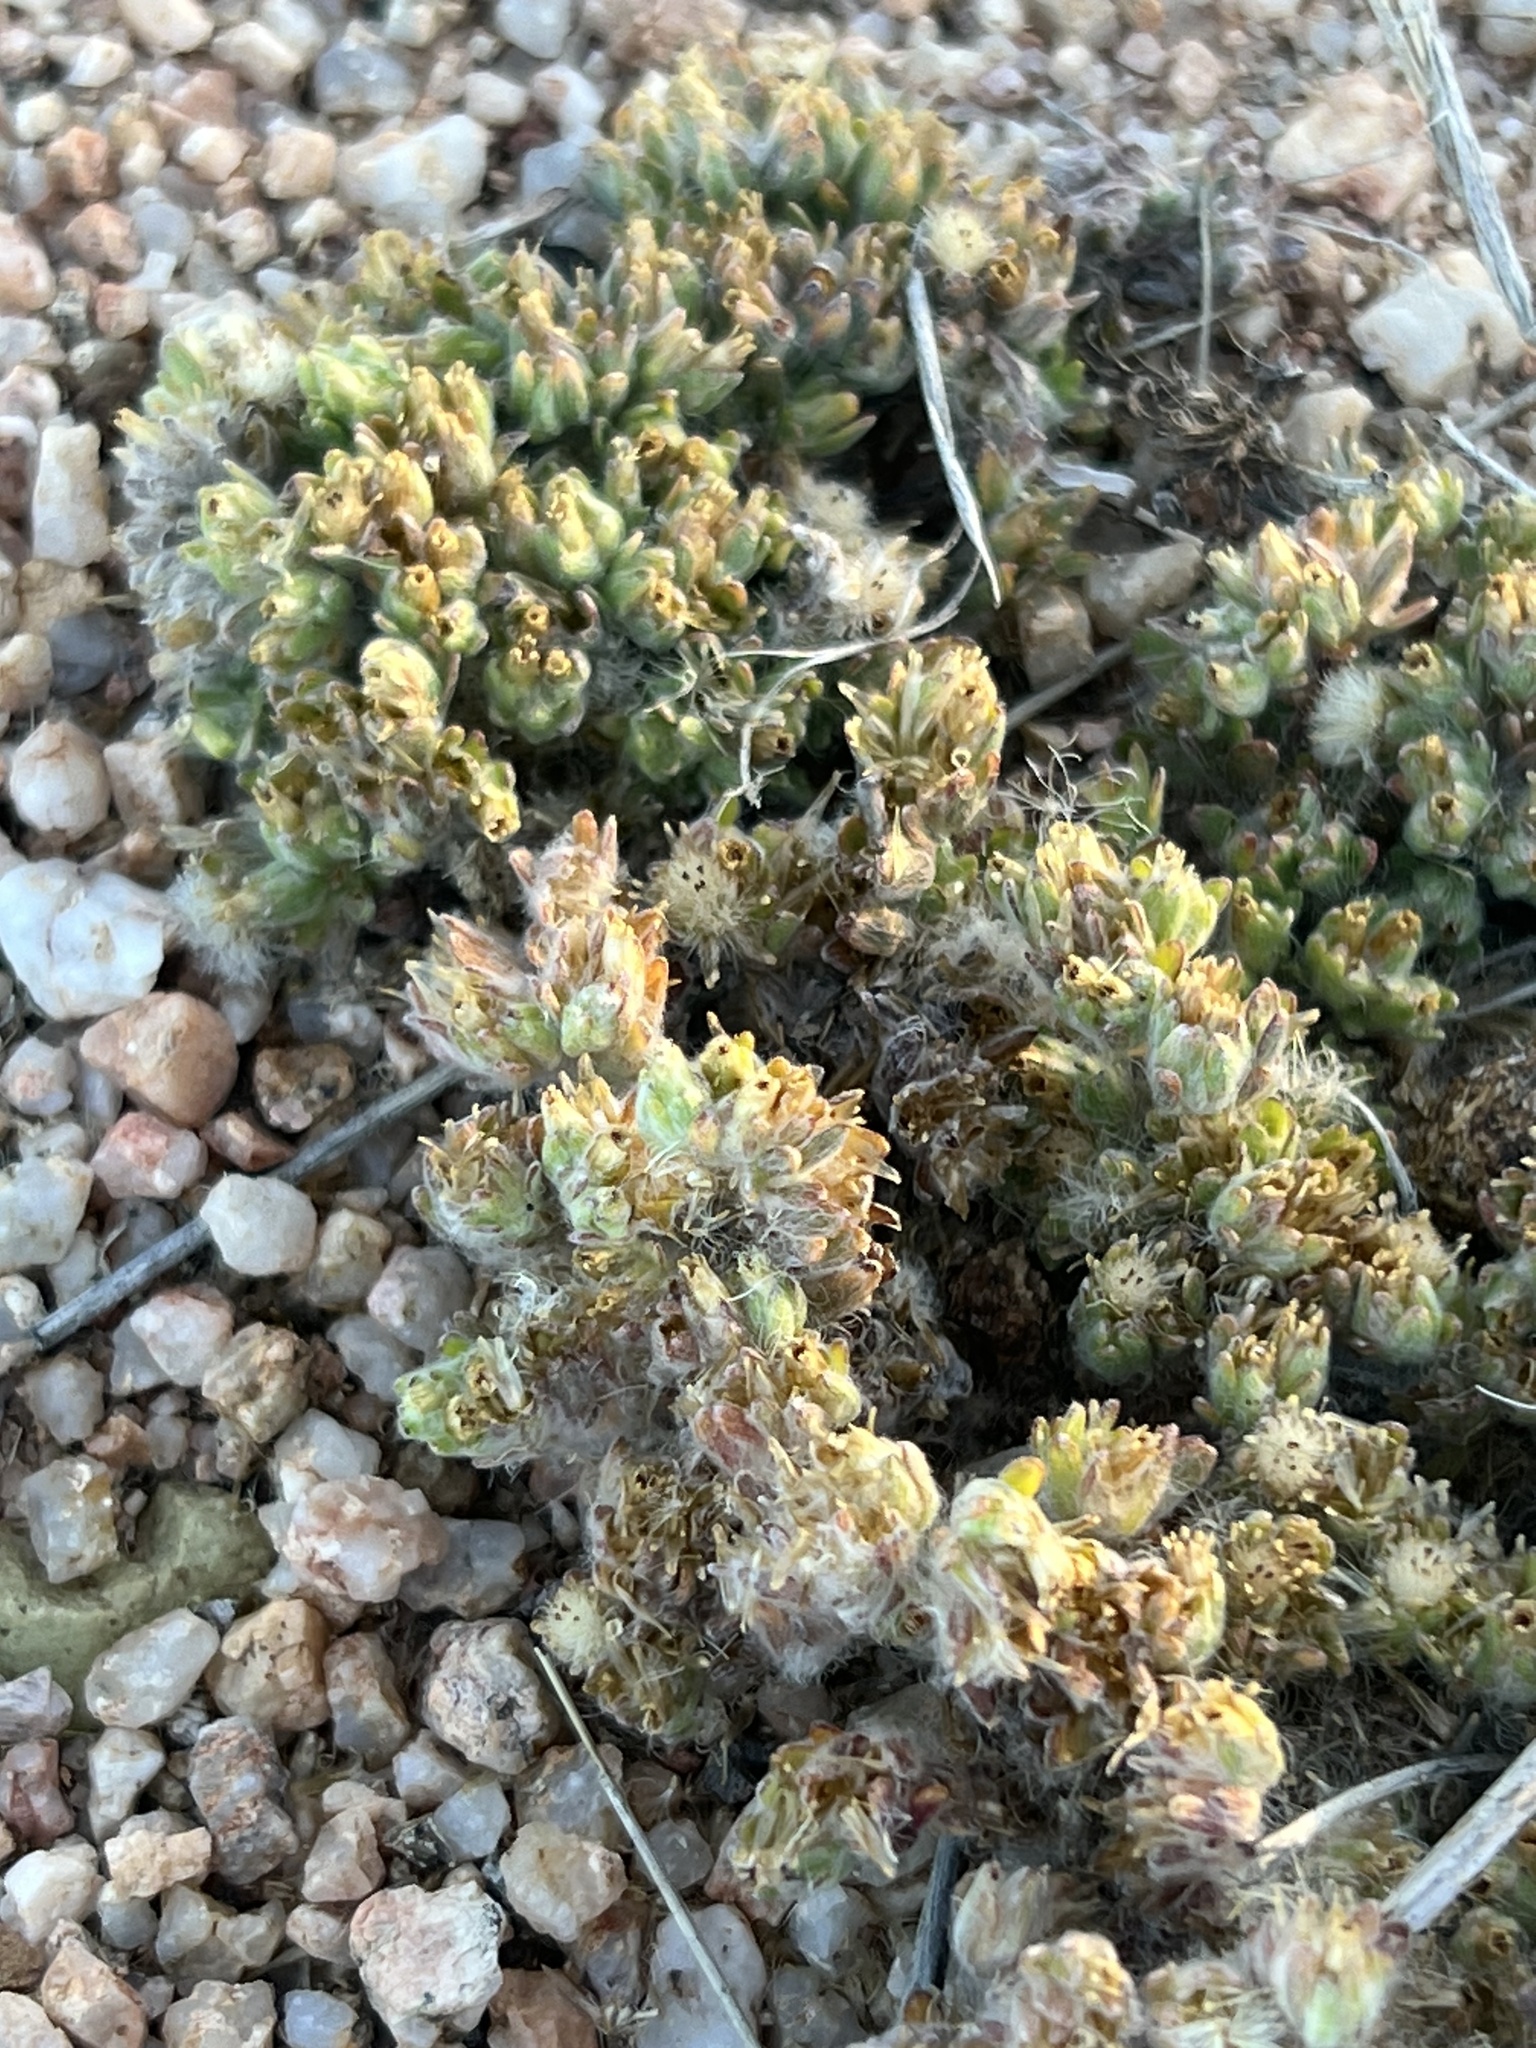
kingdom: Plantae
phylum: Tracheophyta
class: Magnoliopsida
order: Asterales
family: Asteraceae
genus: Lasiopogon
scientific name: Lasiopogon glomerulatus
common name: Green cat thorn
